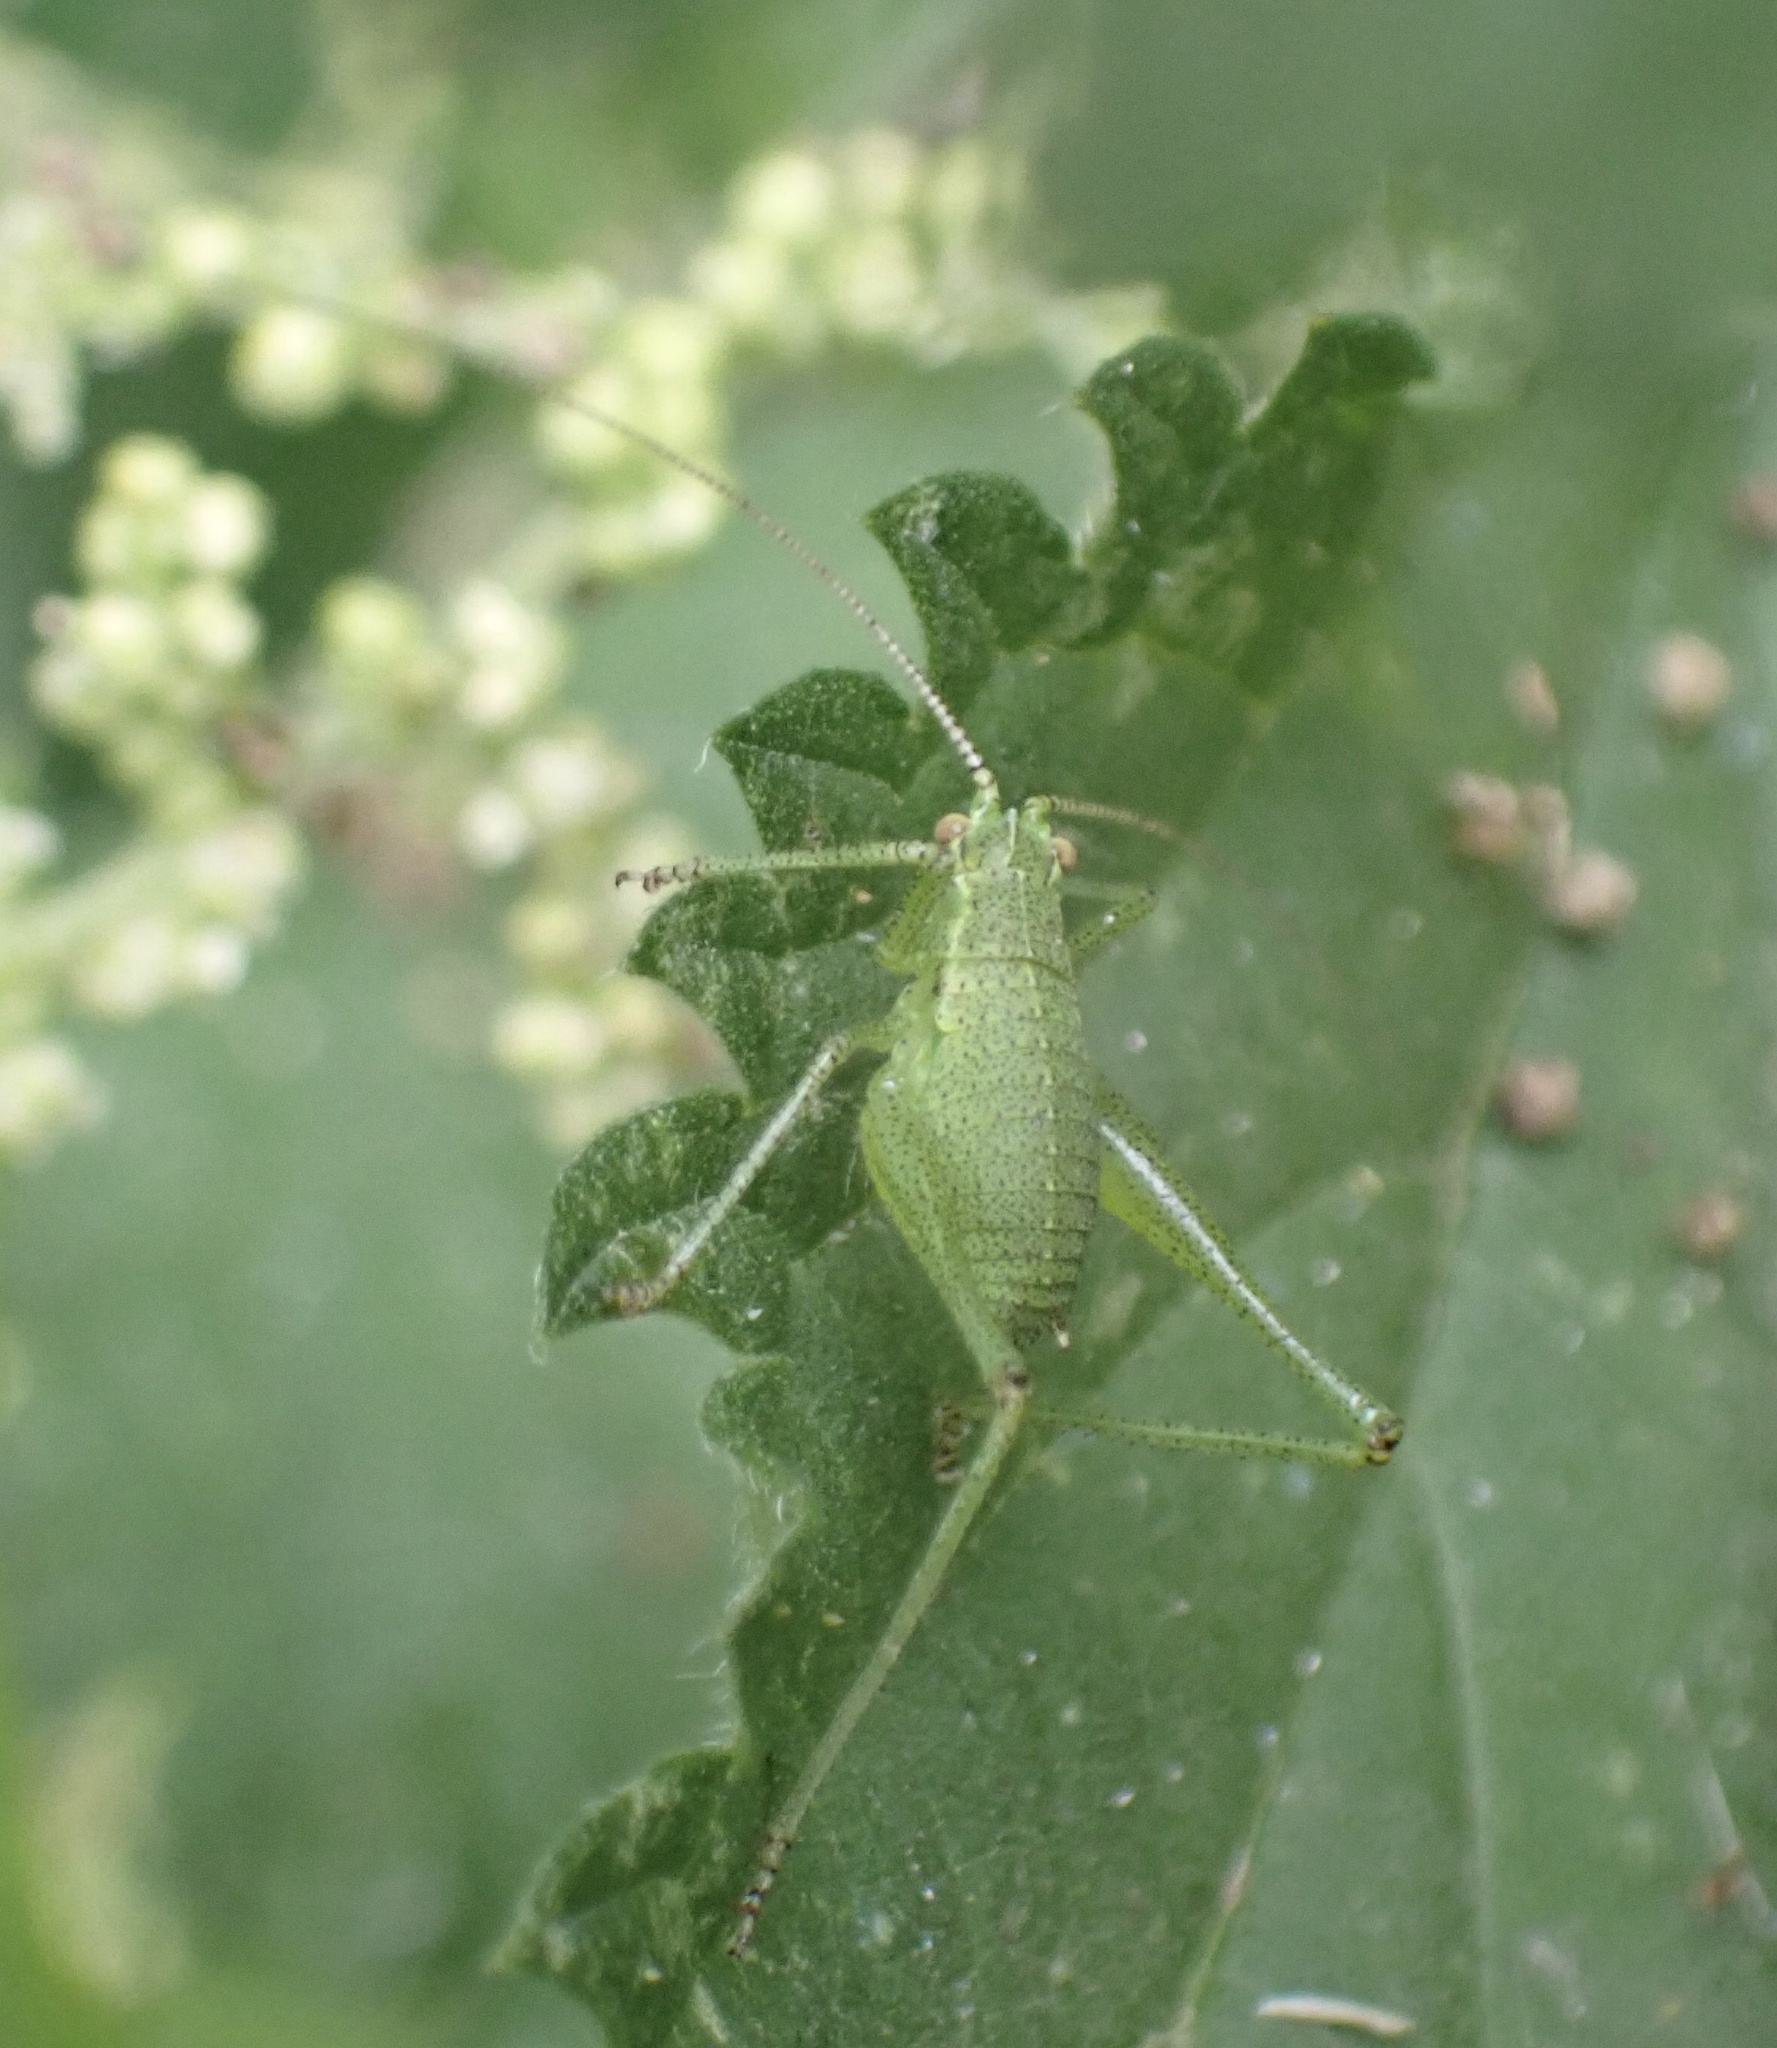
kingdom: Animalia
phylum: Arthropoda
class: Insecta
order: Orthoptera
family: Tettigoniidae
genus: Leptophyes
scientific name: Leptophyes punctatissima
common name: Speckled bush-cricket
